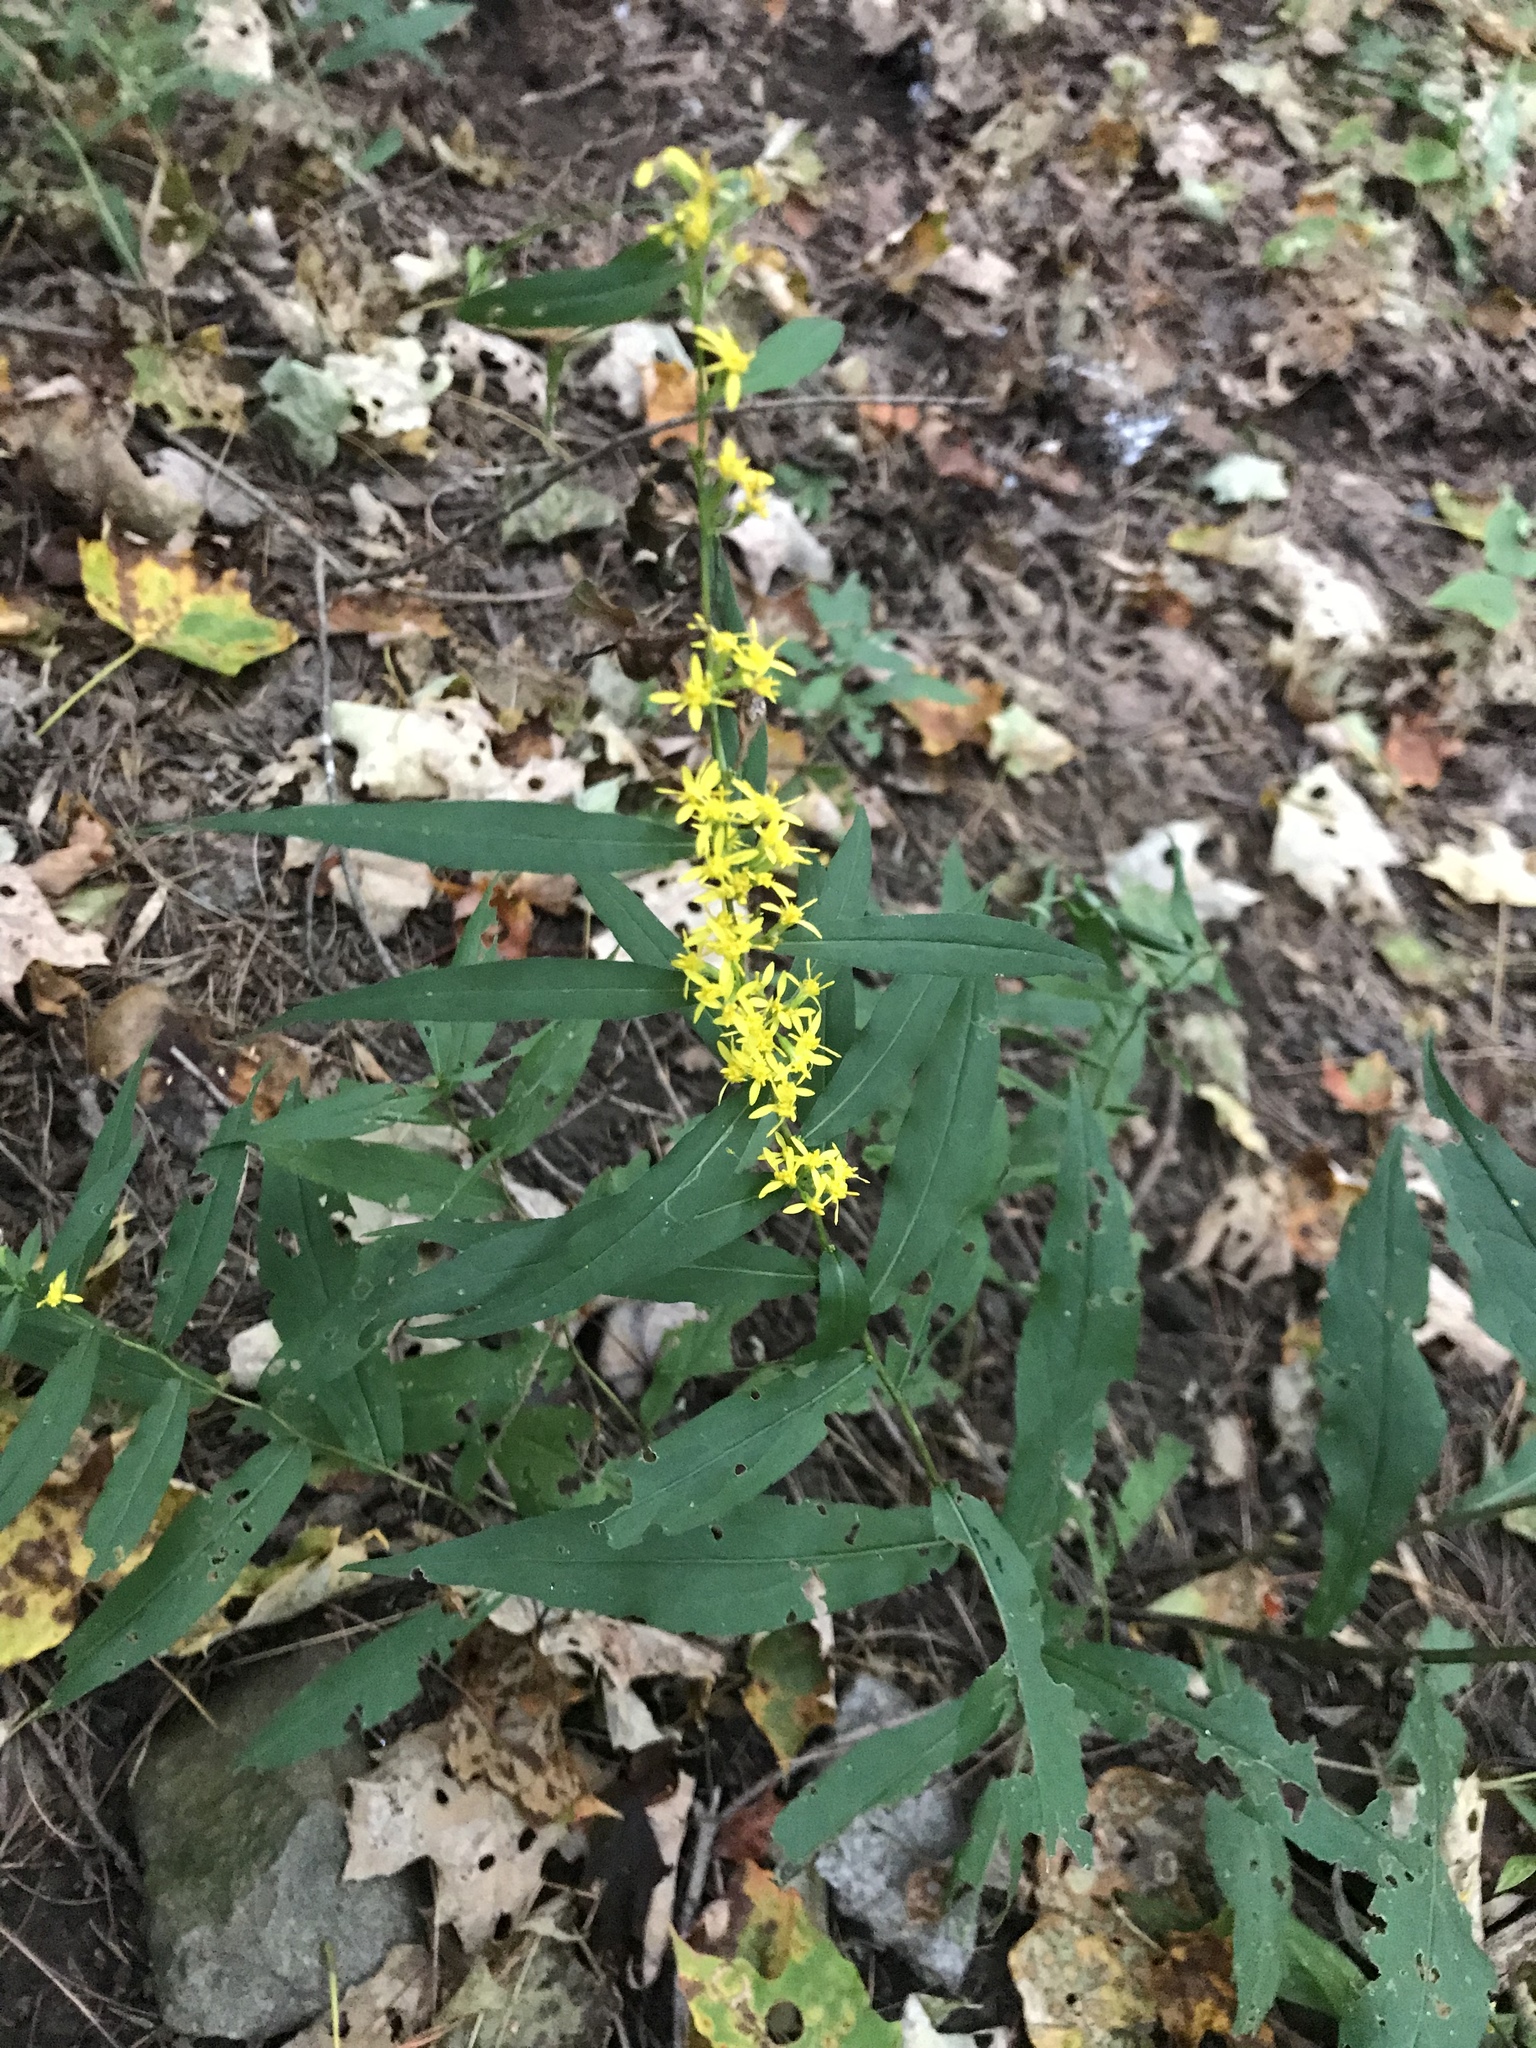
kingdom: Plantae
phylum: Tracheophyta
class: Magnoliopsida
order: Asterales
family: Asteraceae
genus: Solidago
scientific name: Solidago caesia
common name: Woodland goldenrod
